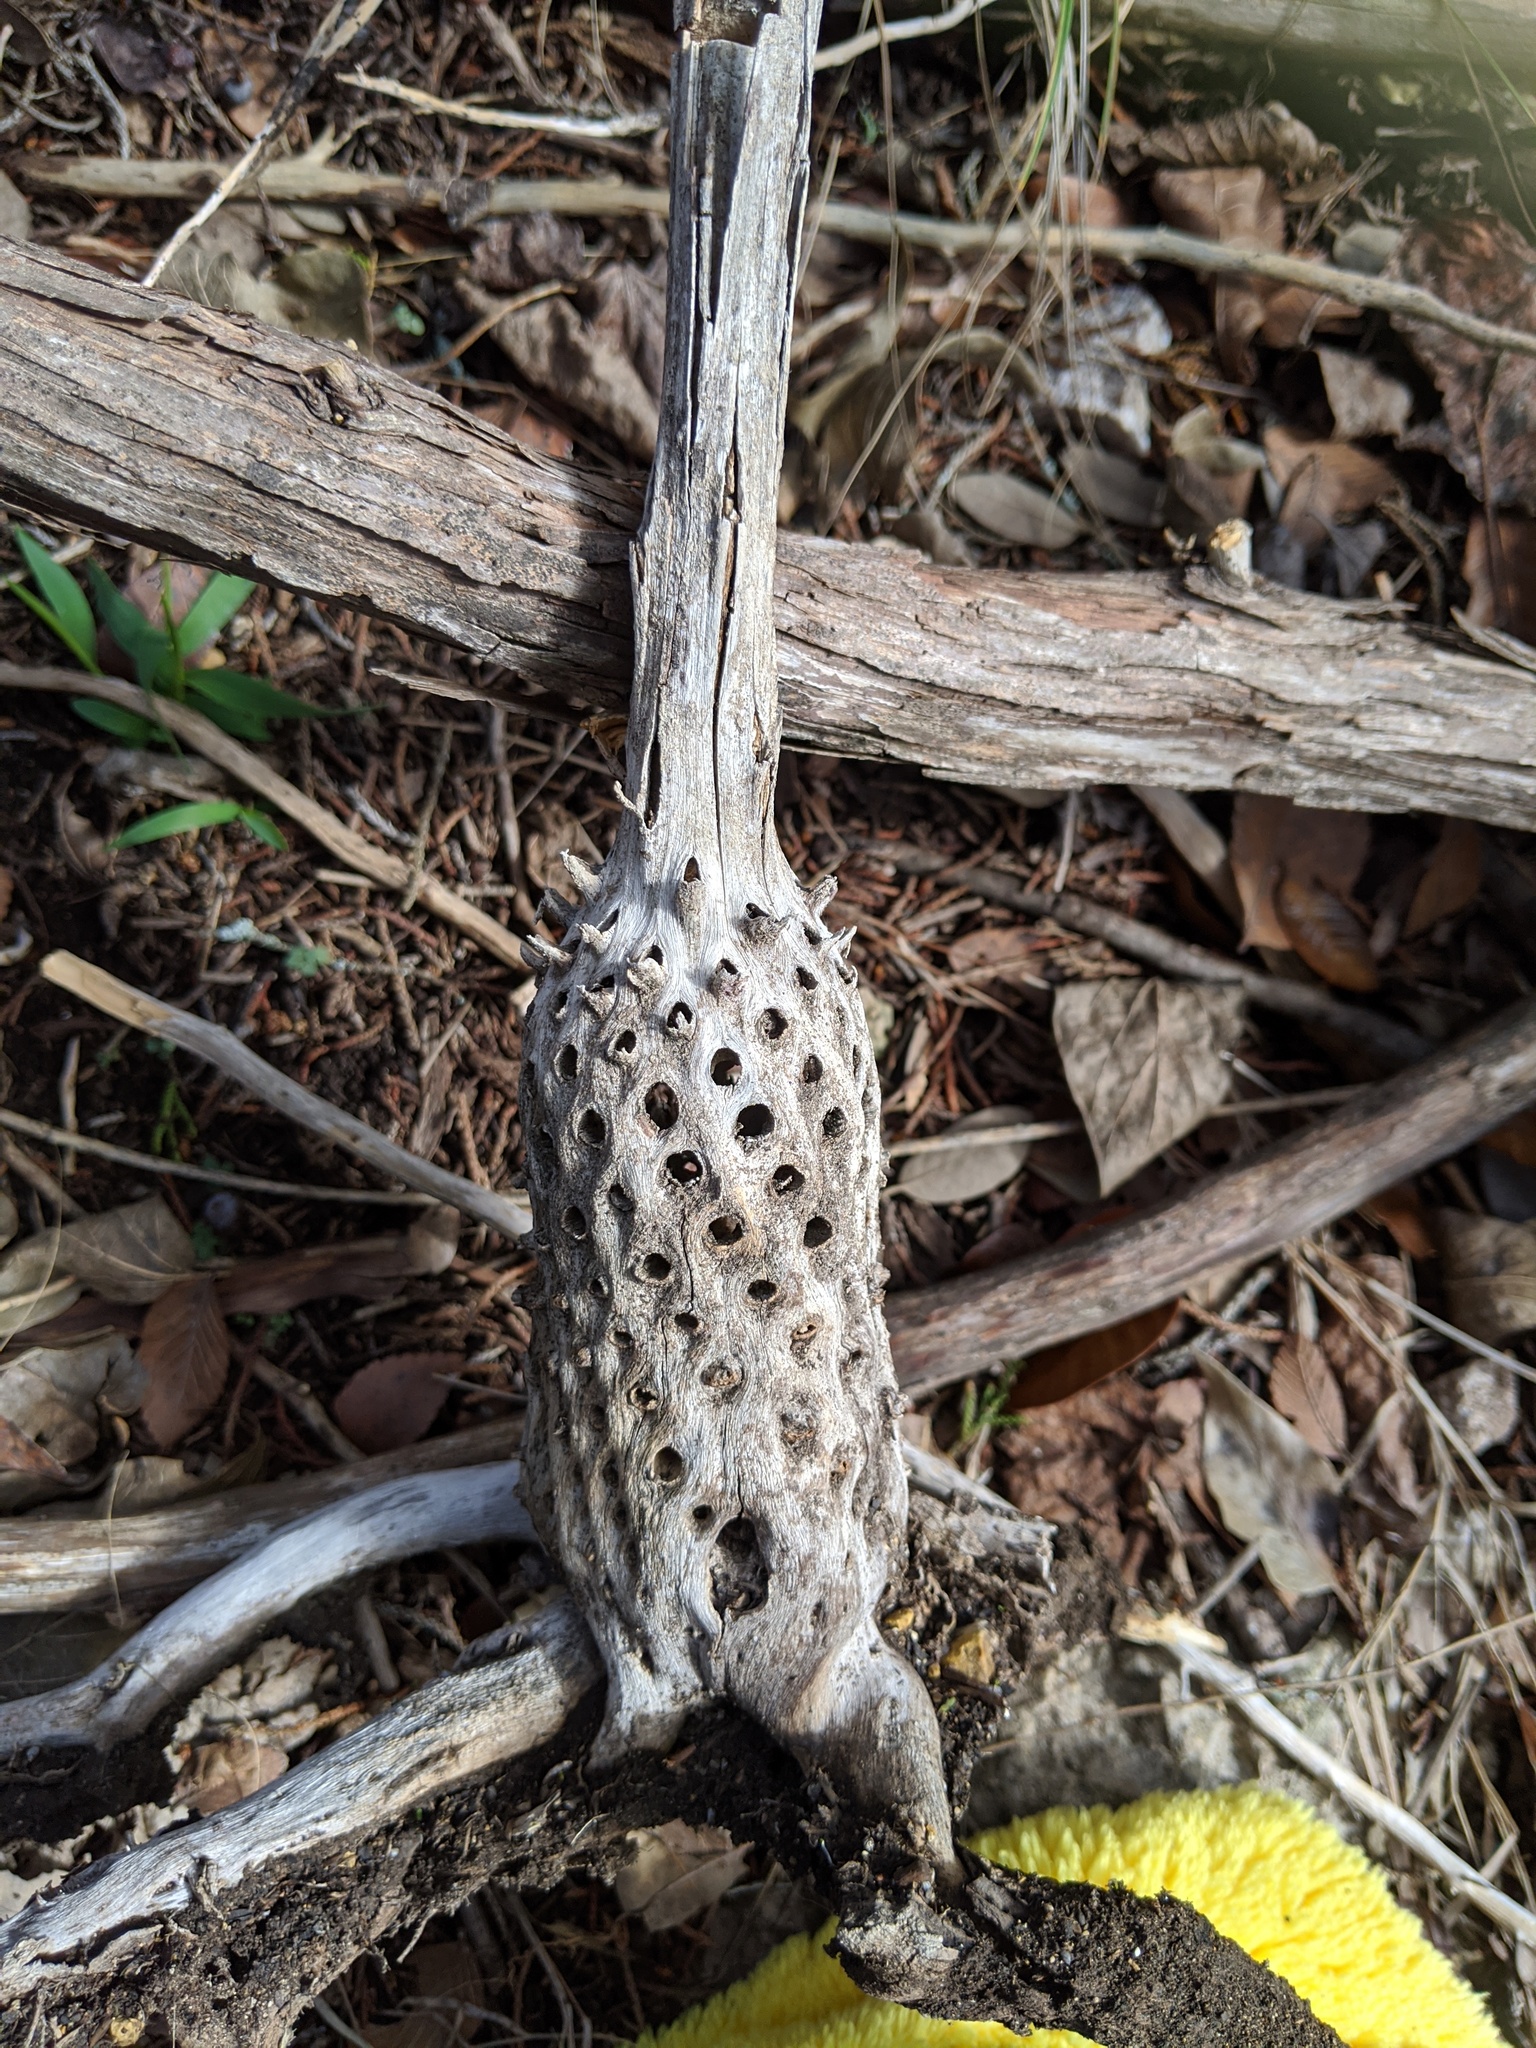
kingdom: Plantae
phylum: Tracheophyta
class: Magnoliopsida
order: Fabales
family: Fabaceae
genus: Sesbania
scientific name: Sesbania herbacea
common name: Bigpod sesbania
